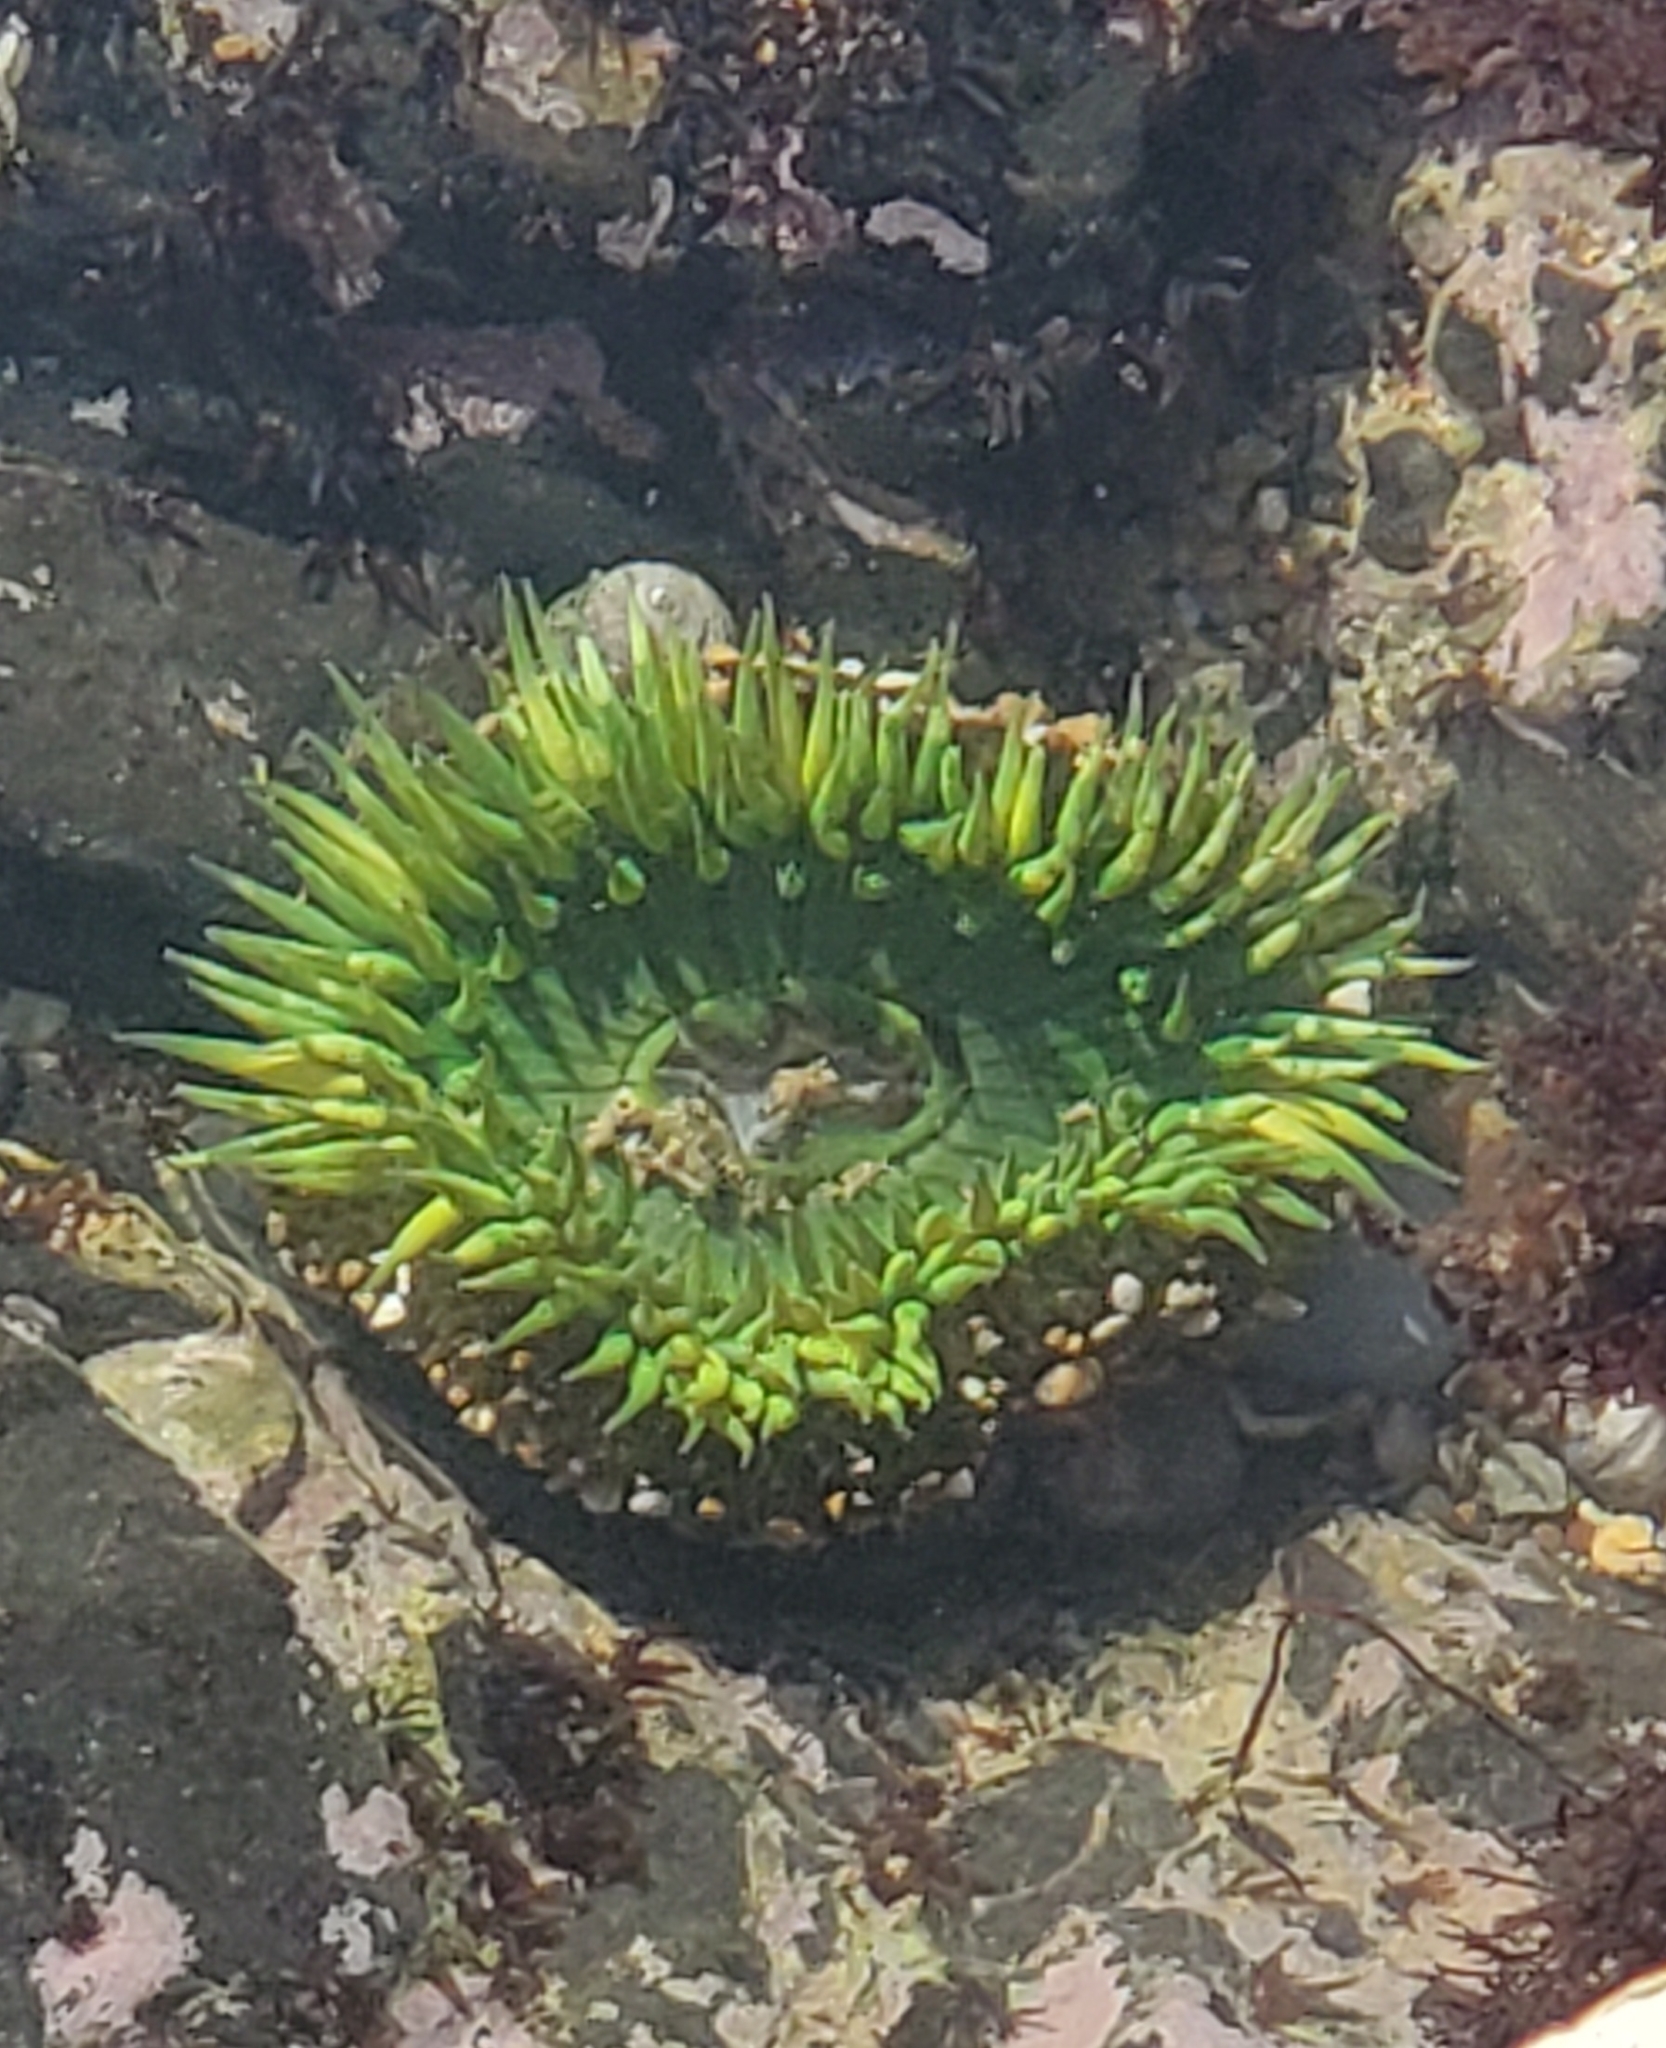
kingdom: Animalia
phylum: Cnidaria
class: Anthozoa
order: Actiniaria
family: Actiniidae
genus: Anthopleura
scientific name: Anthopleura sola
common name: Sun anemone
